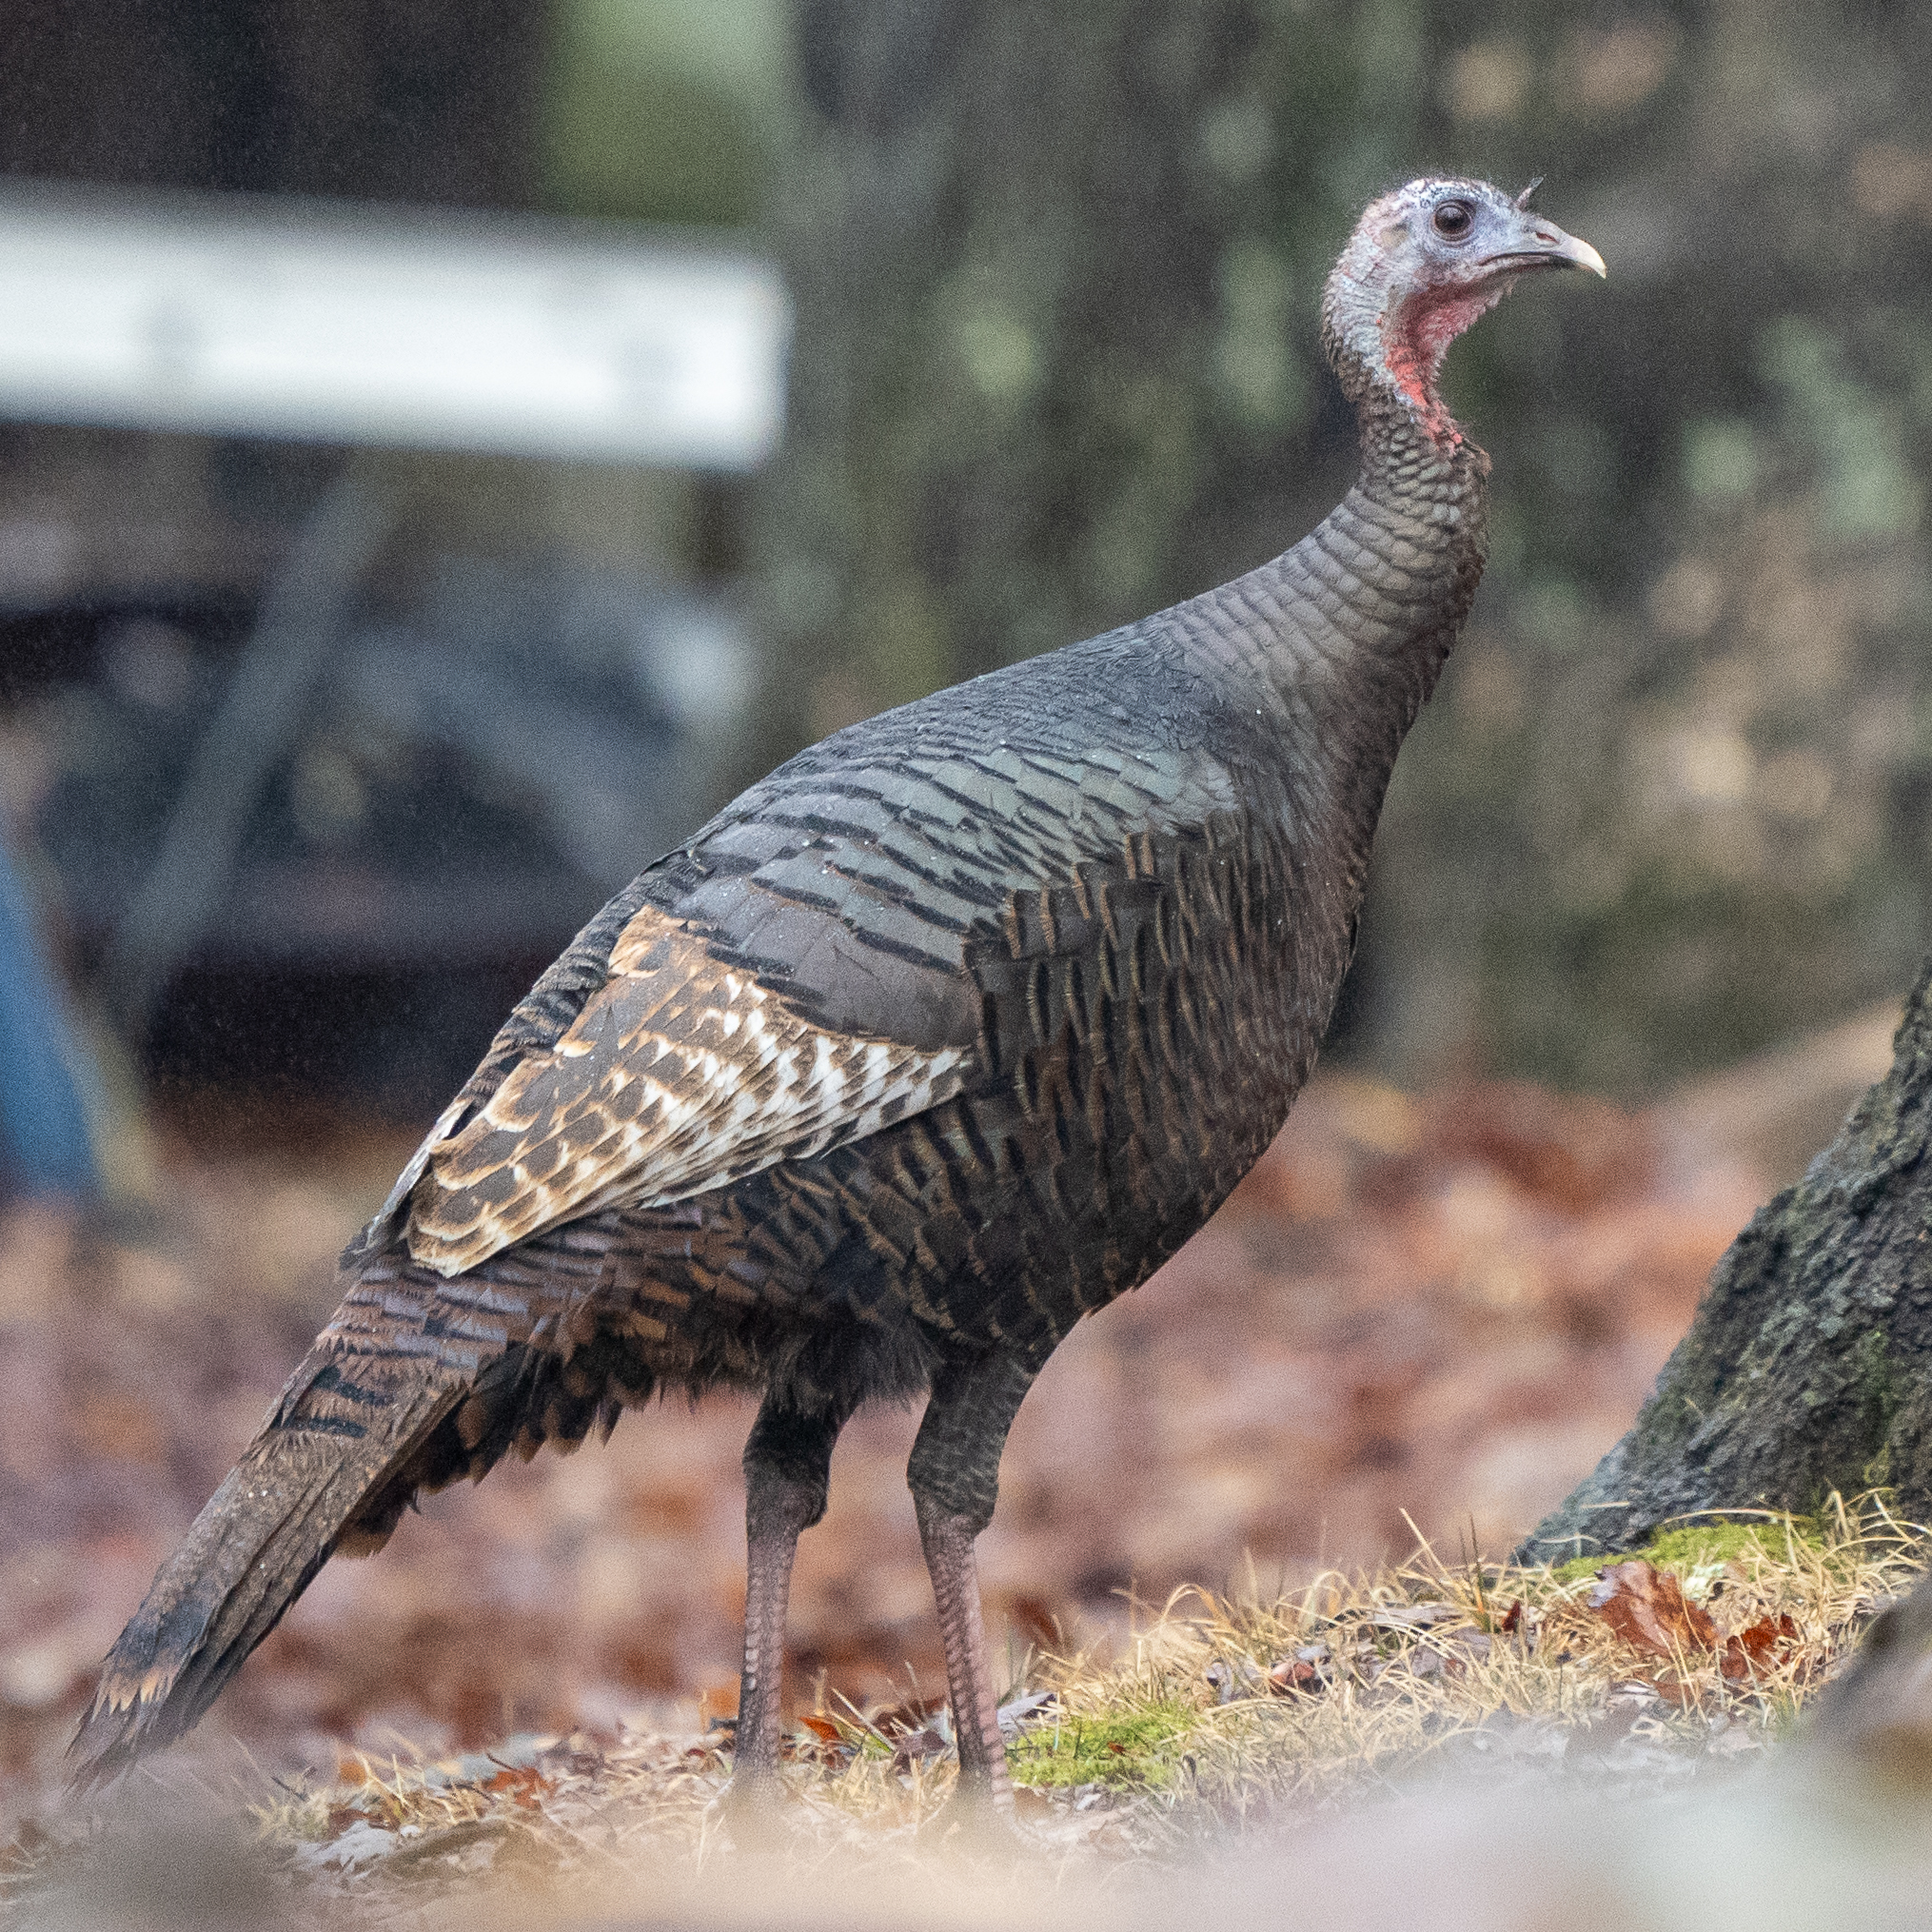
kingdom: Animalia
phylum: Chordata
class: Aves
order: Galliformes
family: Phasianidae
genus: Meleagris
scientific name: Meleagris gallopavo
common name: Wild turkey
